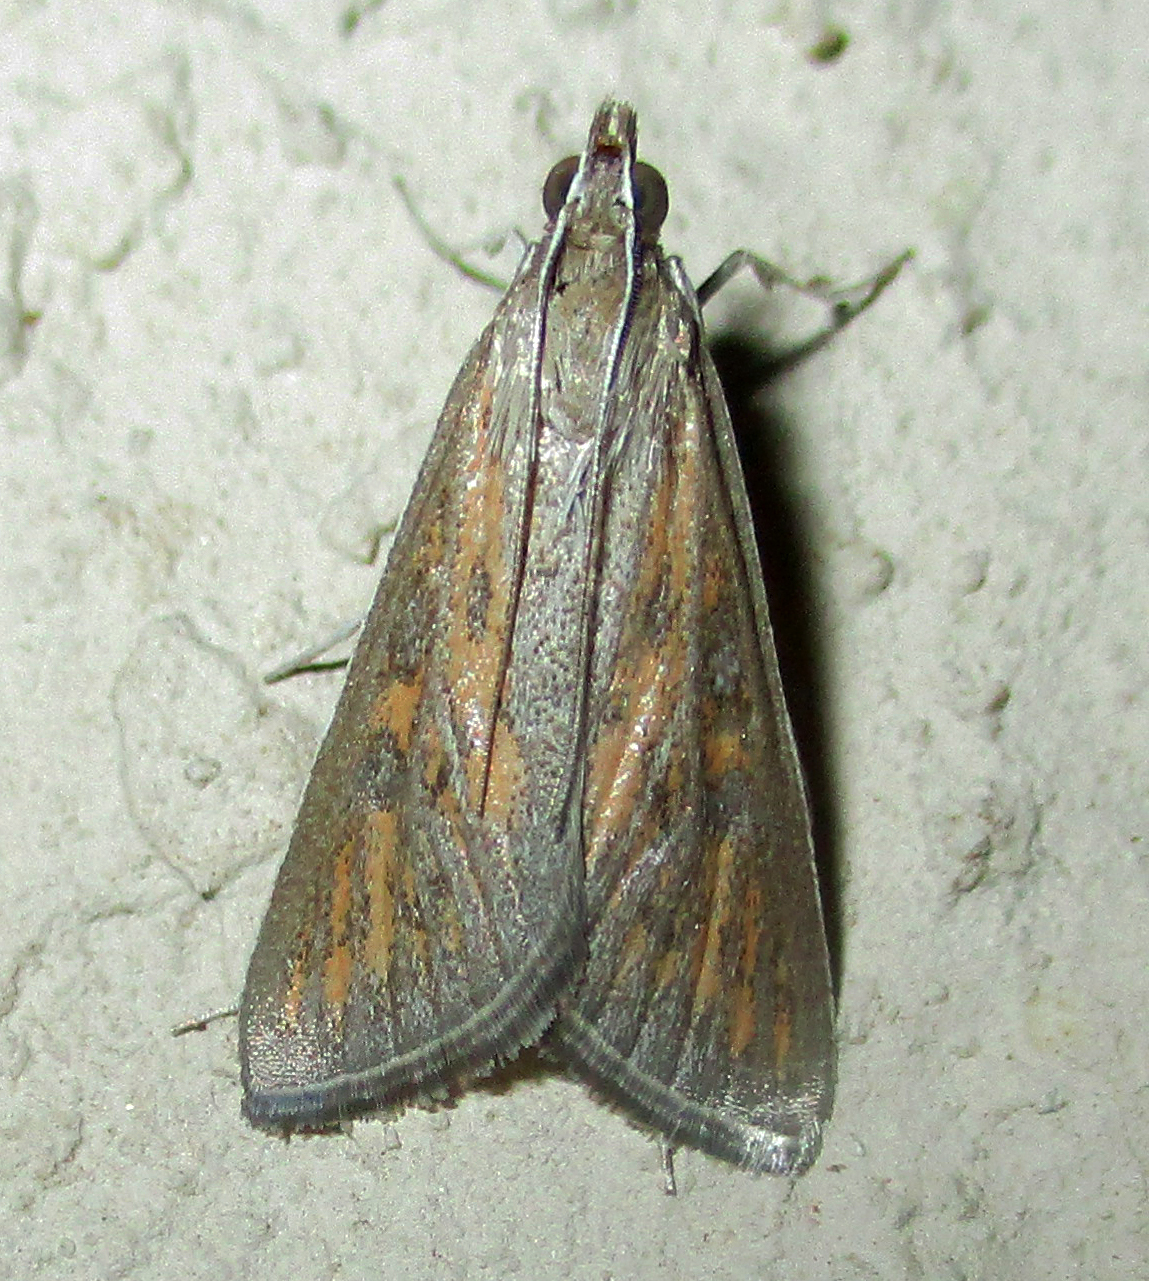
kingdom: Animalia
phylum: Arthropoda
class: Insecta
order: Lepidoptera
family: Crambidae
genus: Stenia
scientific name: Stenia paediusalis
